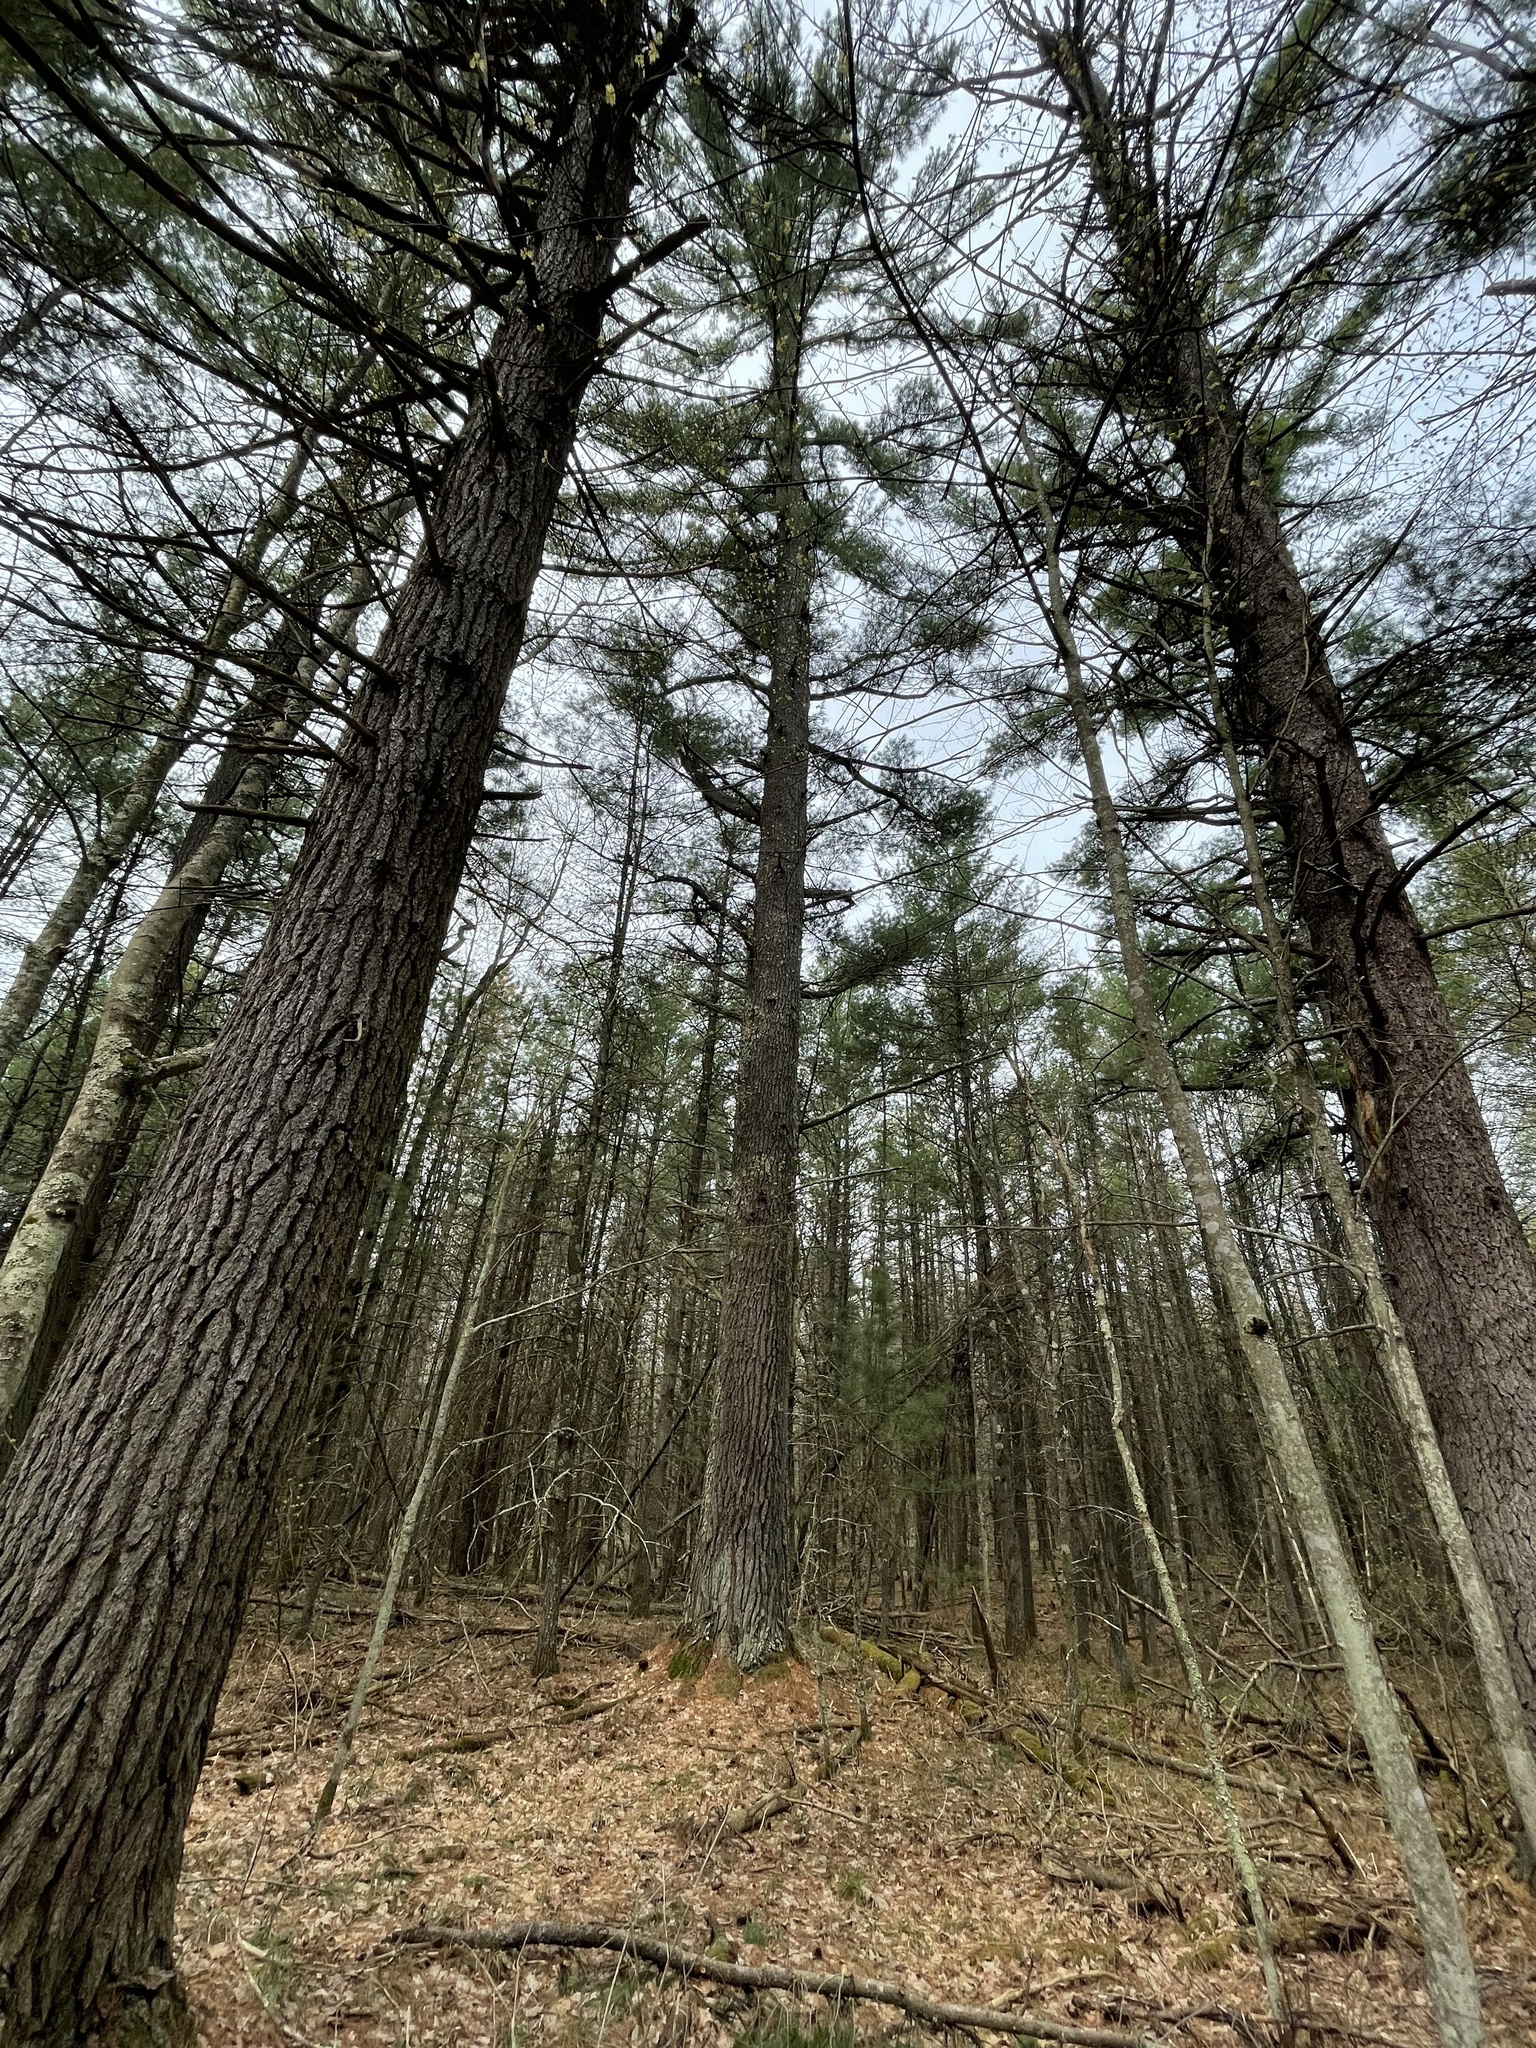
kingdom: Plantae
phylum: Tracheophyta
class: Pinopsida
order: Pinales
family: Pinaceae
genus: Pinus
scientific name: Pinus strobus
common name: Weymouth pine
